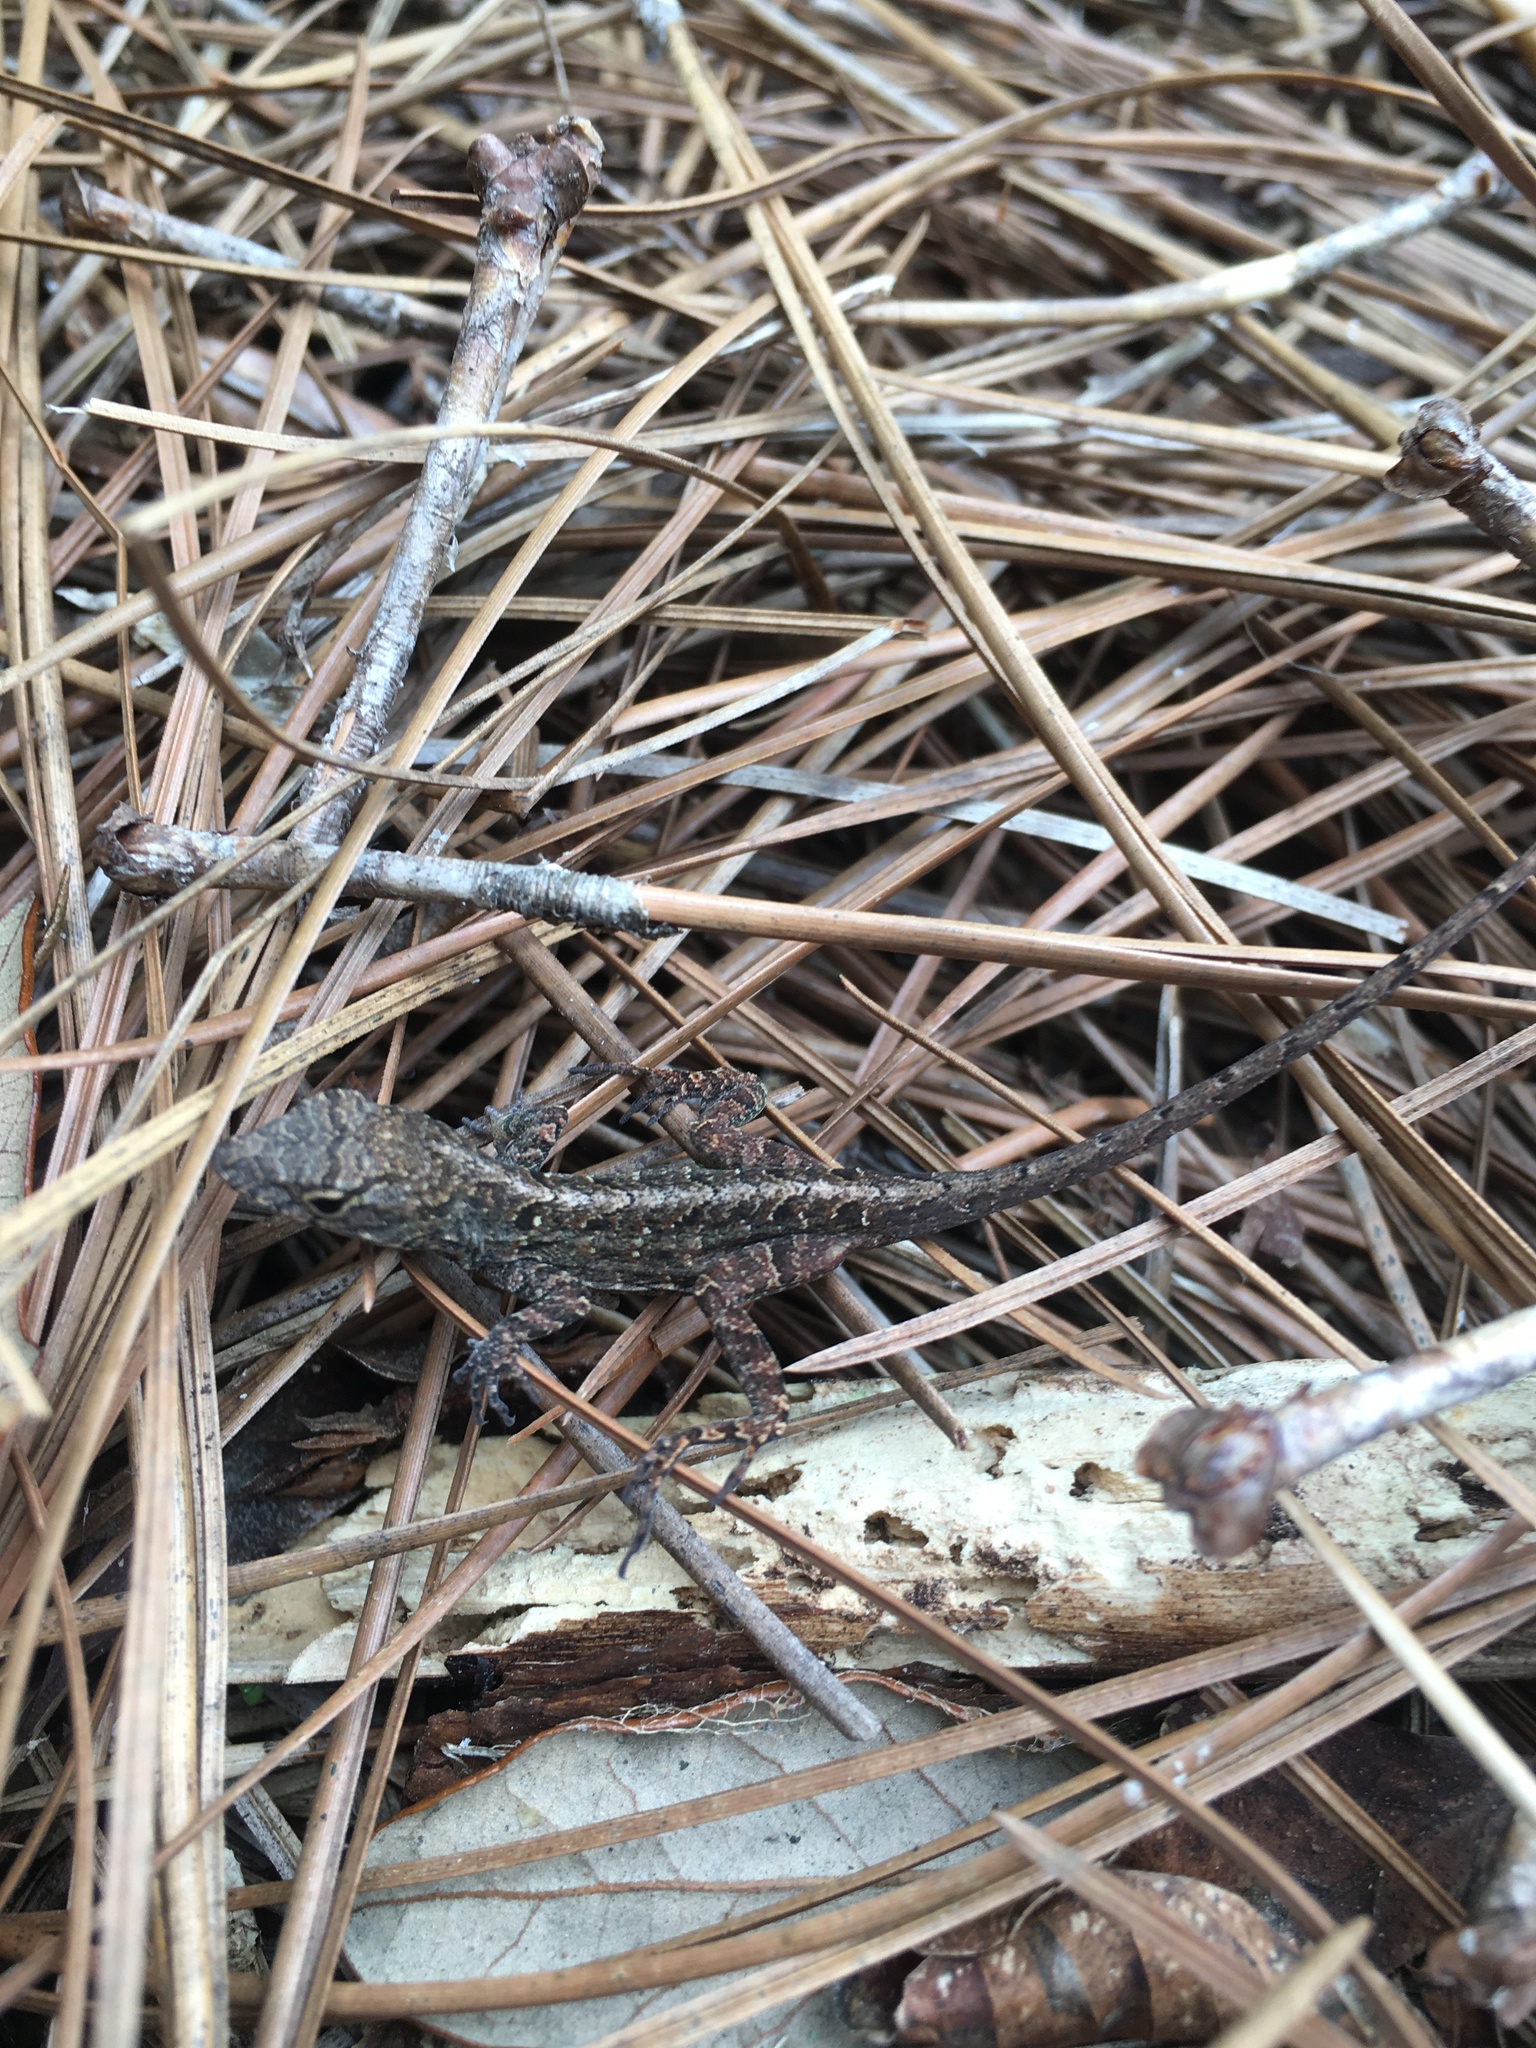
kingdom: Animalia
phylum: Chordata
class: Squamata
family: Dactyloidae
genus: Anolis
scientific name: Anolis sagrei
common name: Brown anole
